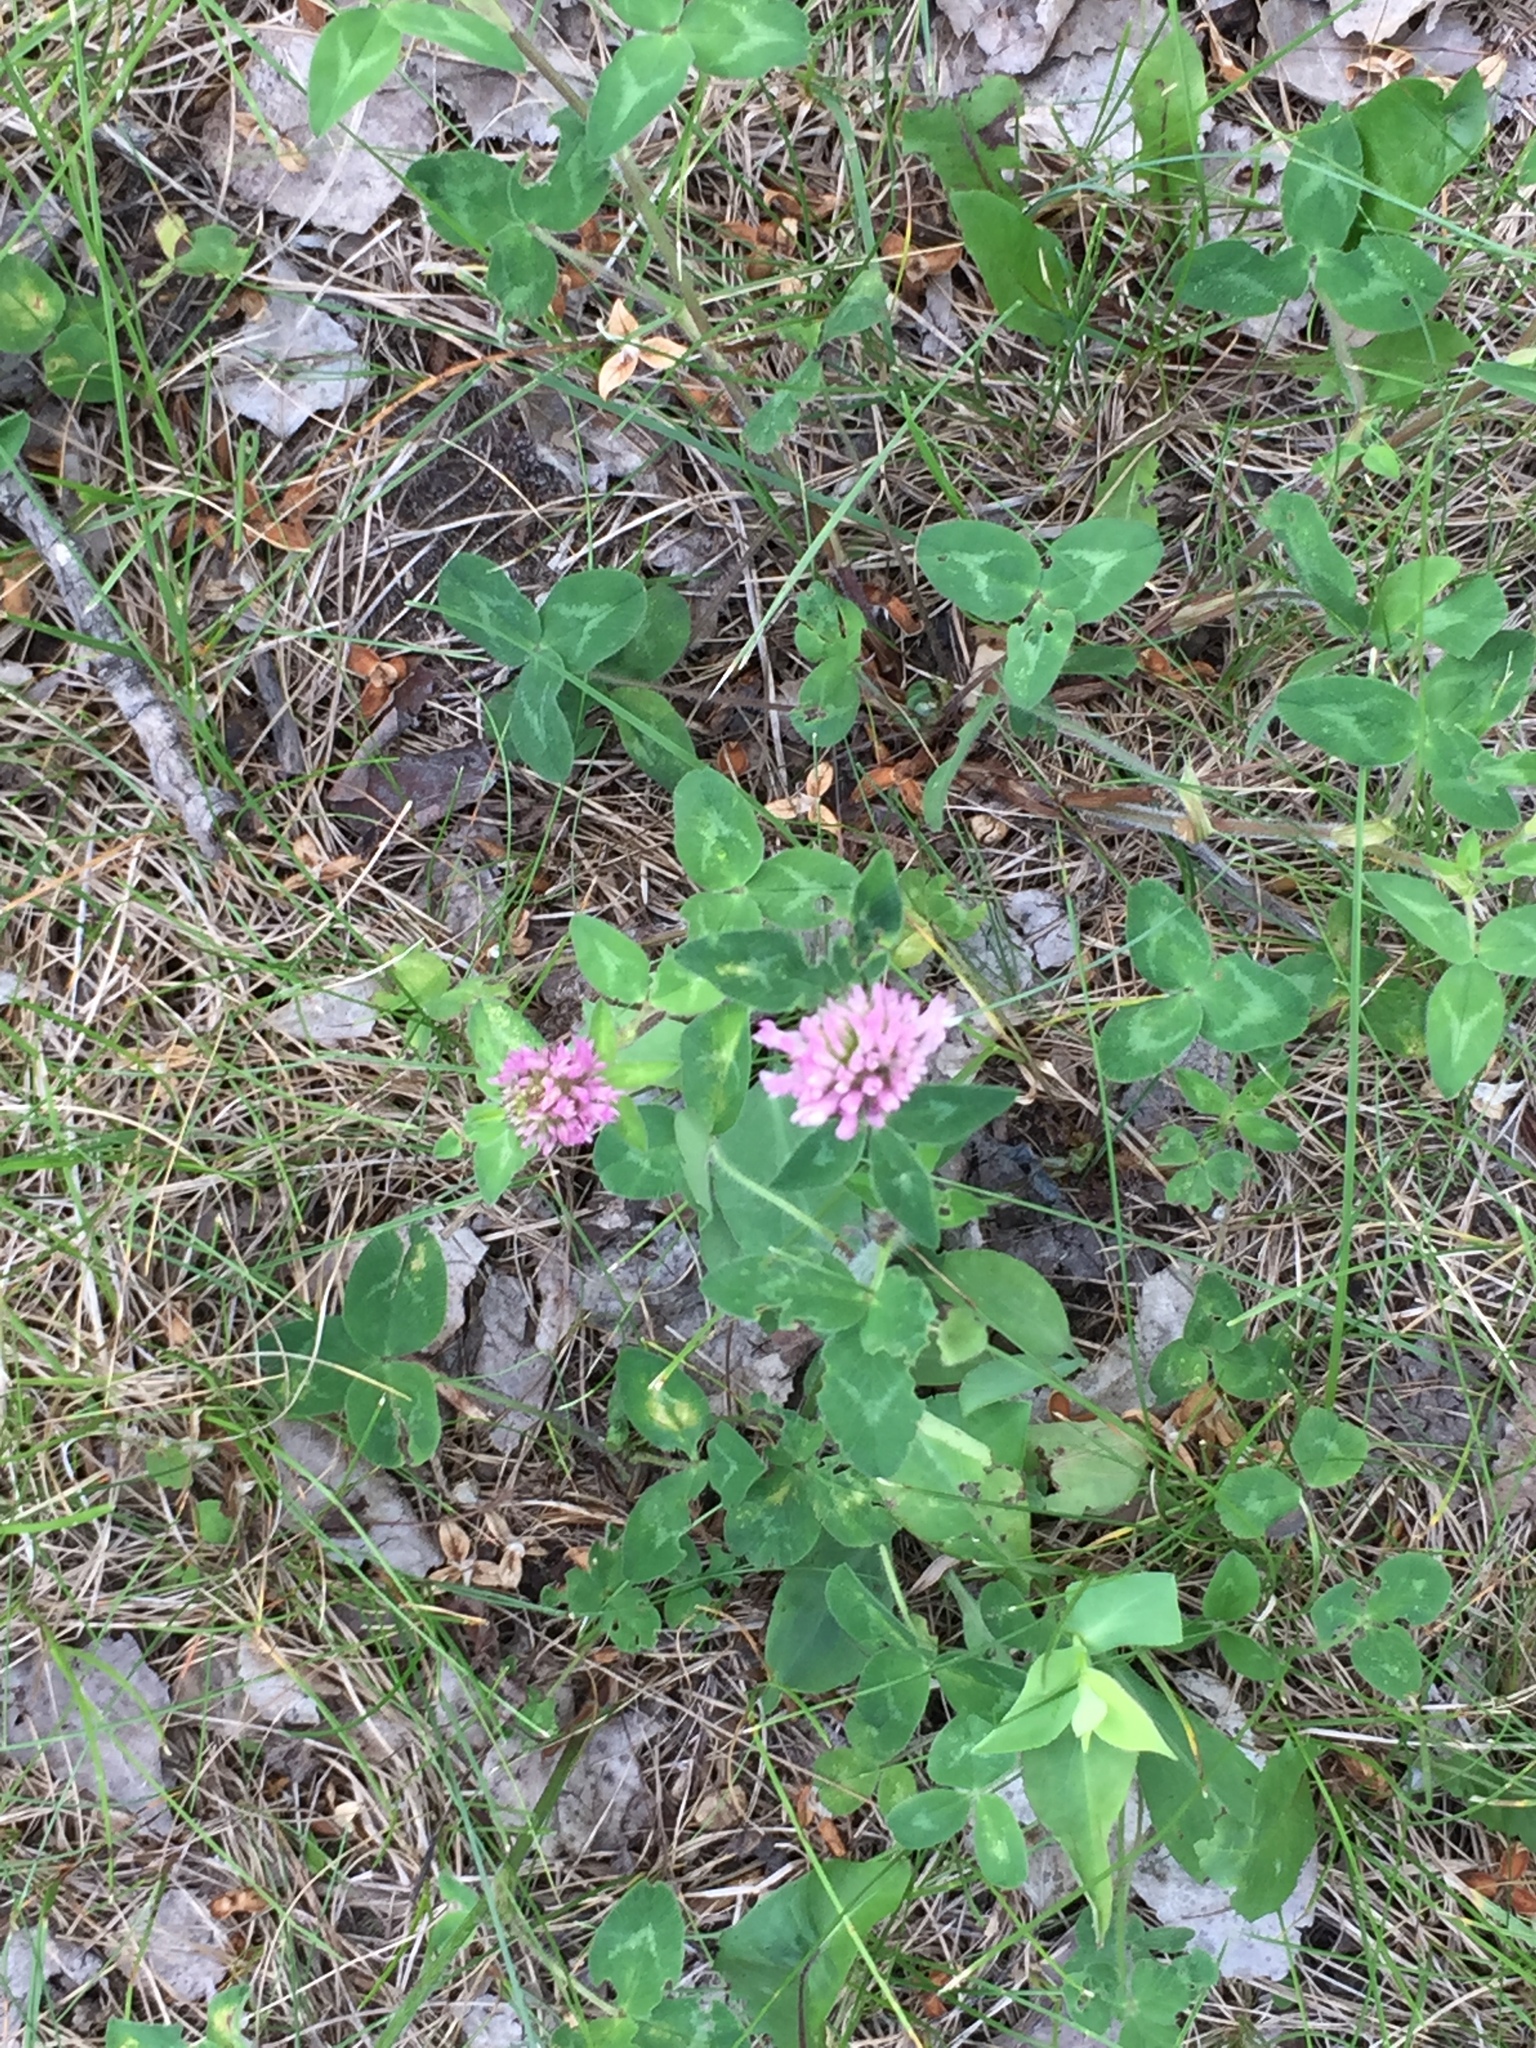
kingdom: Plantae
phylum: Tracheophyta
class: Magnoliopsida
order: Fabales
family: Fabaceae
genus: Trifolium
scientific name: Trifolium pratense
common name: Red clover
